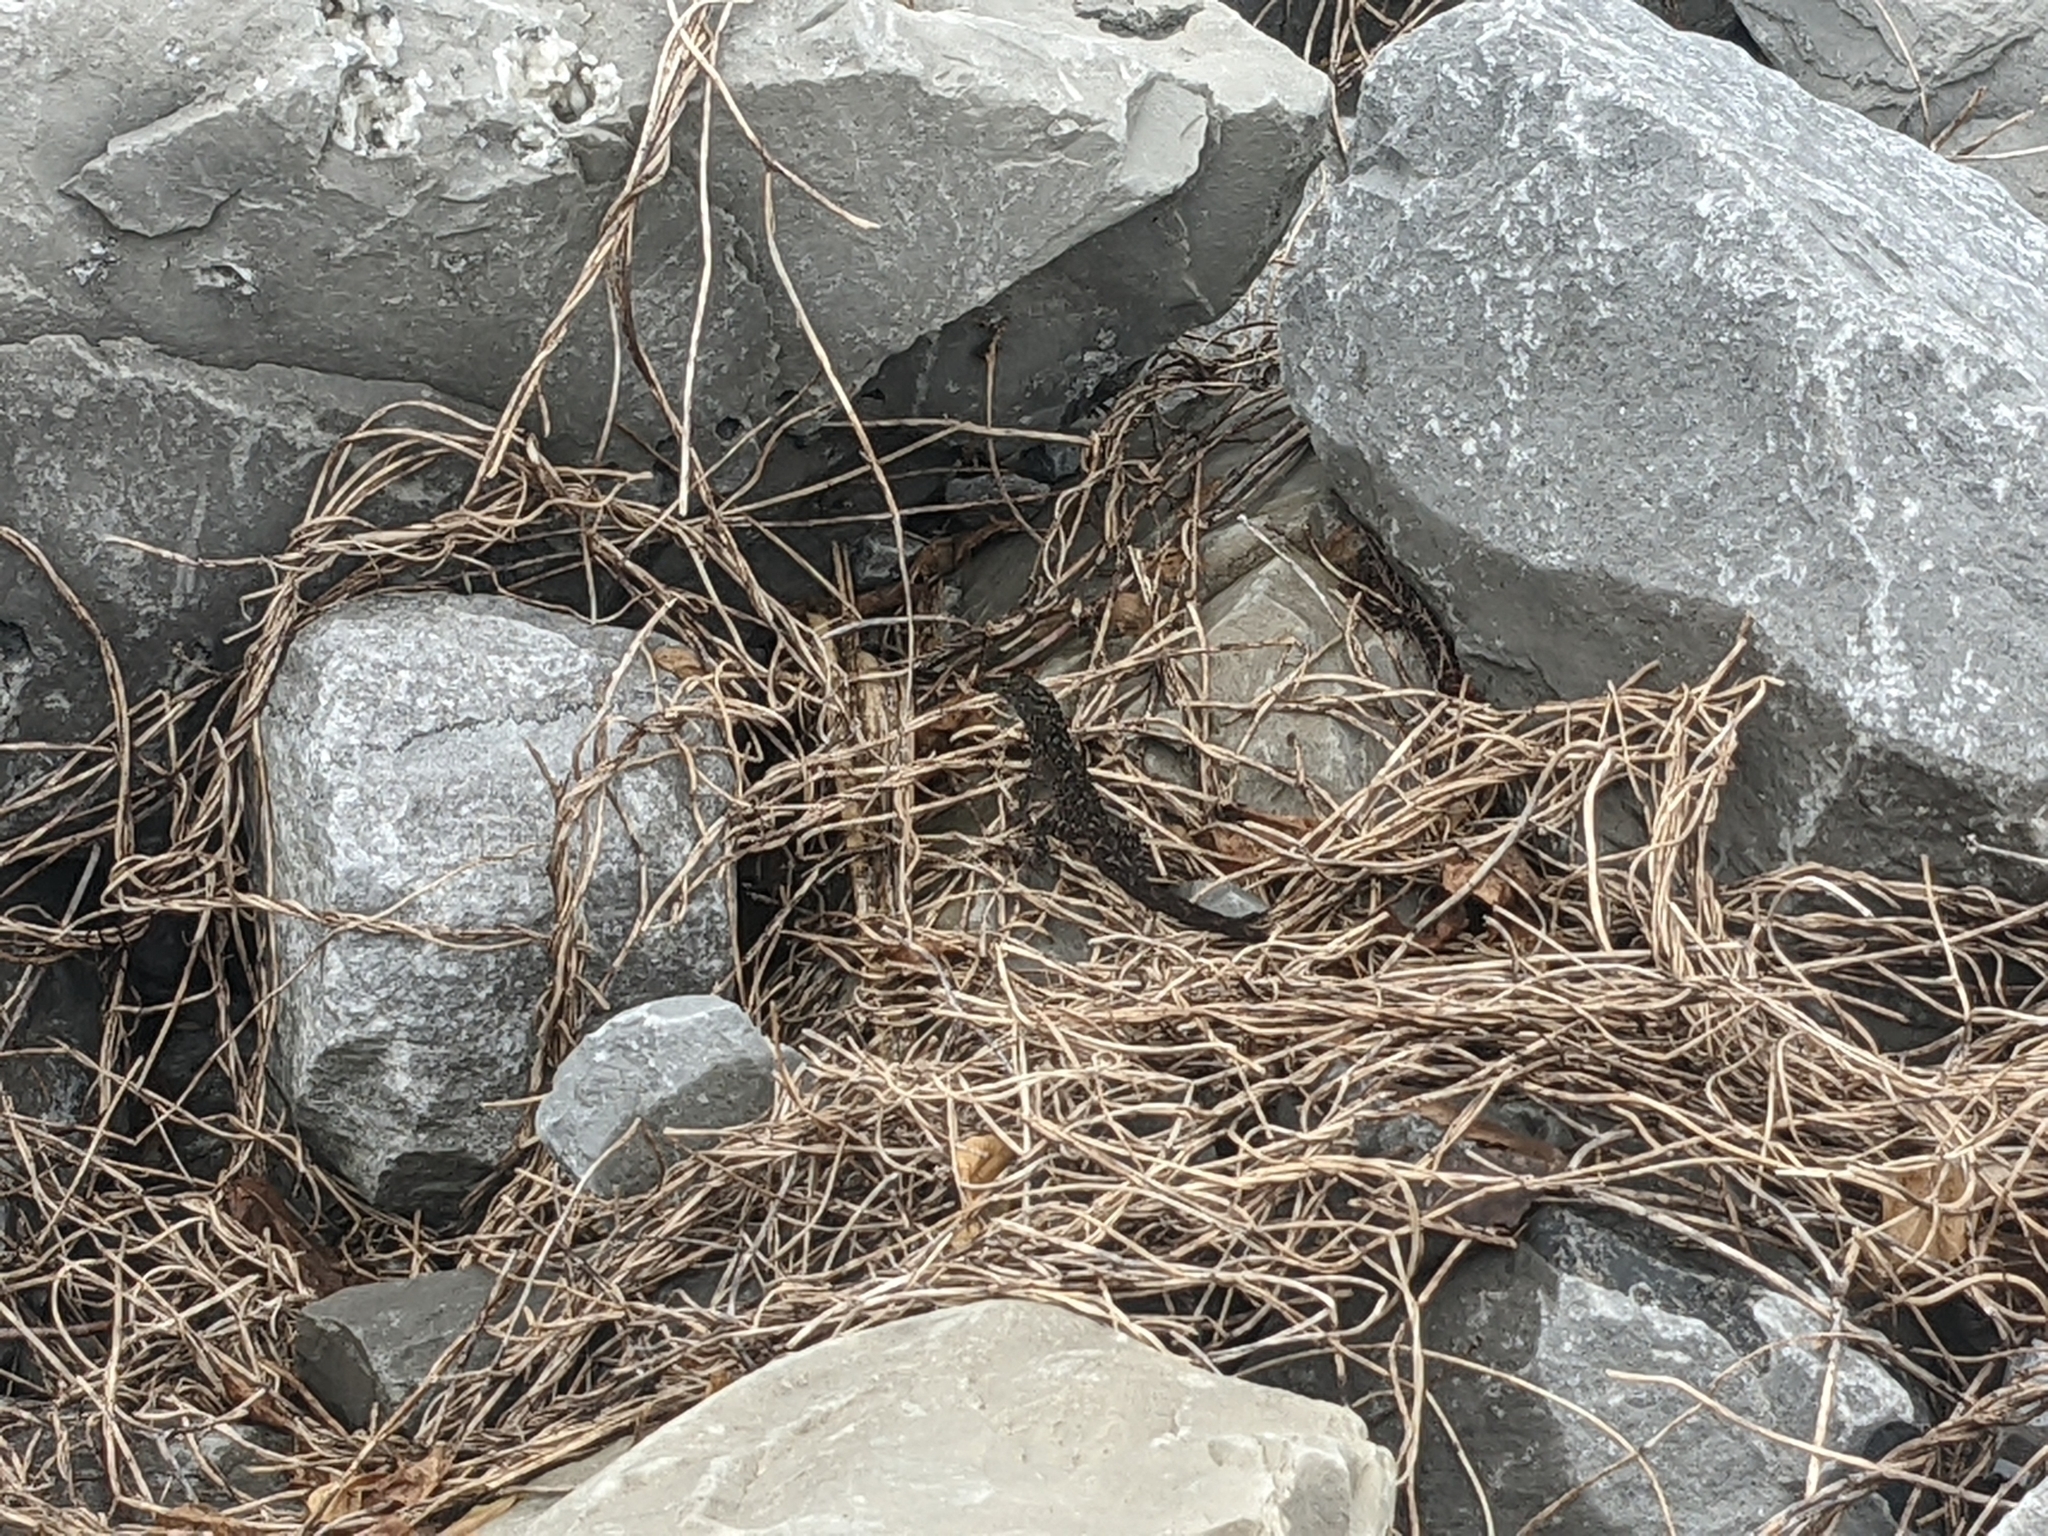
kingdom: Animalia
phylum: Chordata
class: Squamata
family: Dactyloidae
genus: Anolis
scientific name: Anolis sagrei
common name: Brown anole
